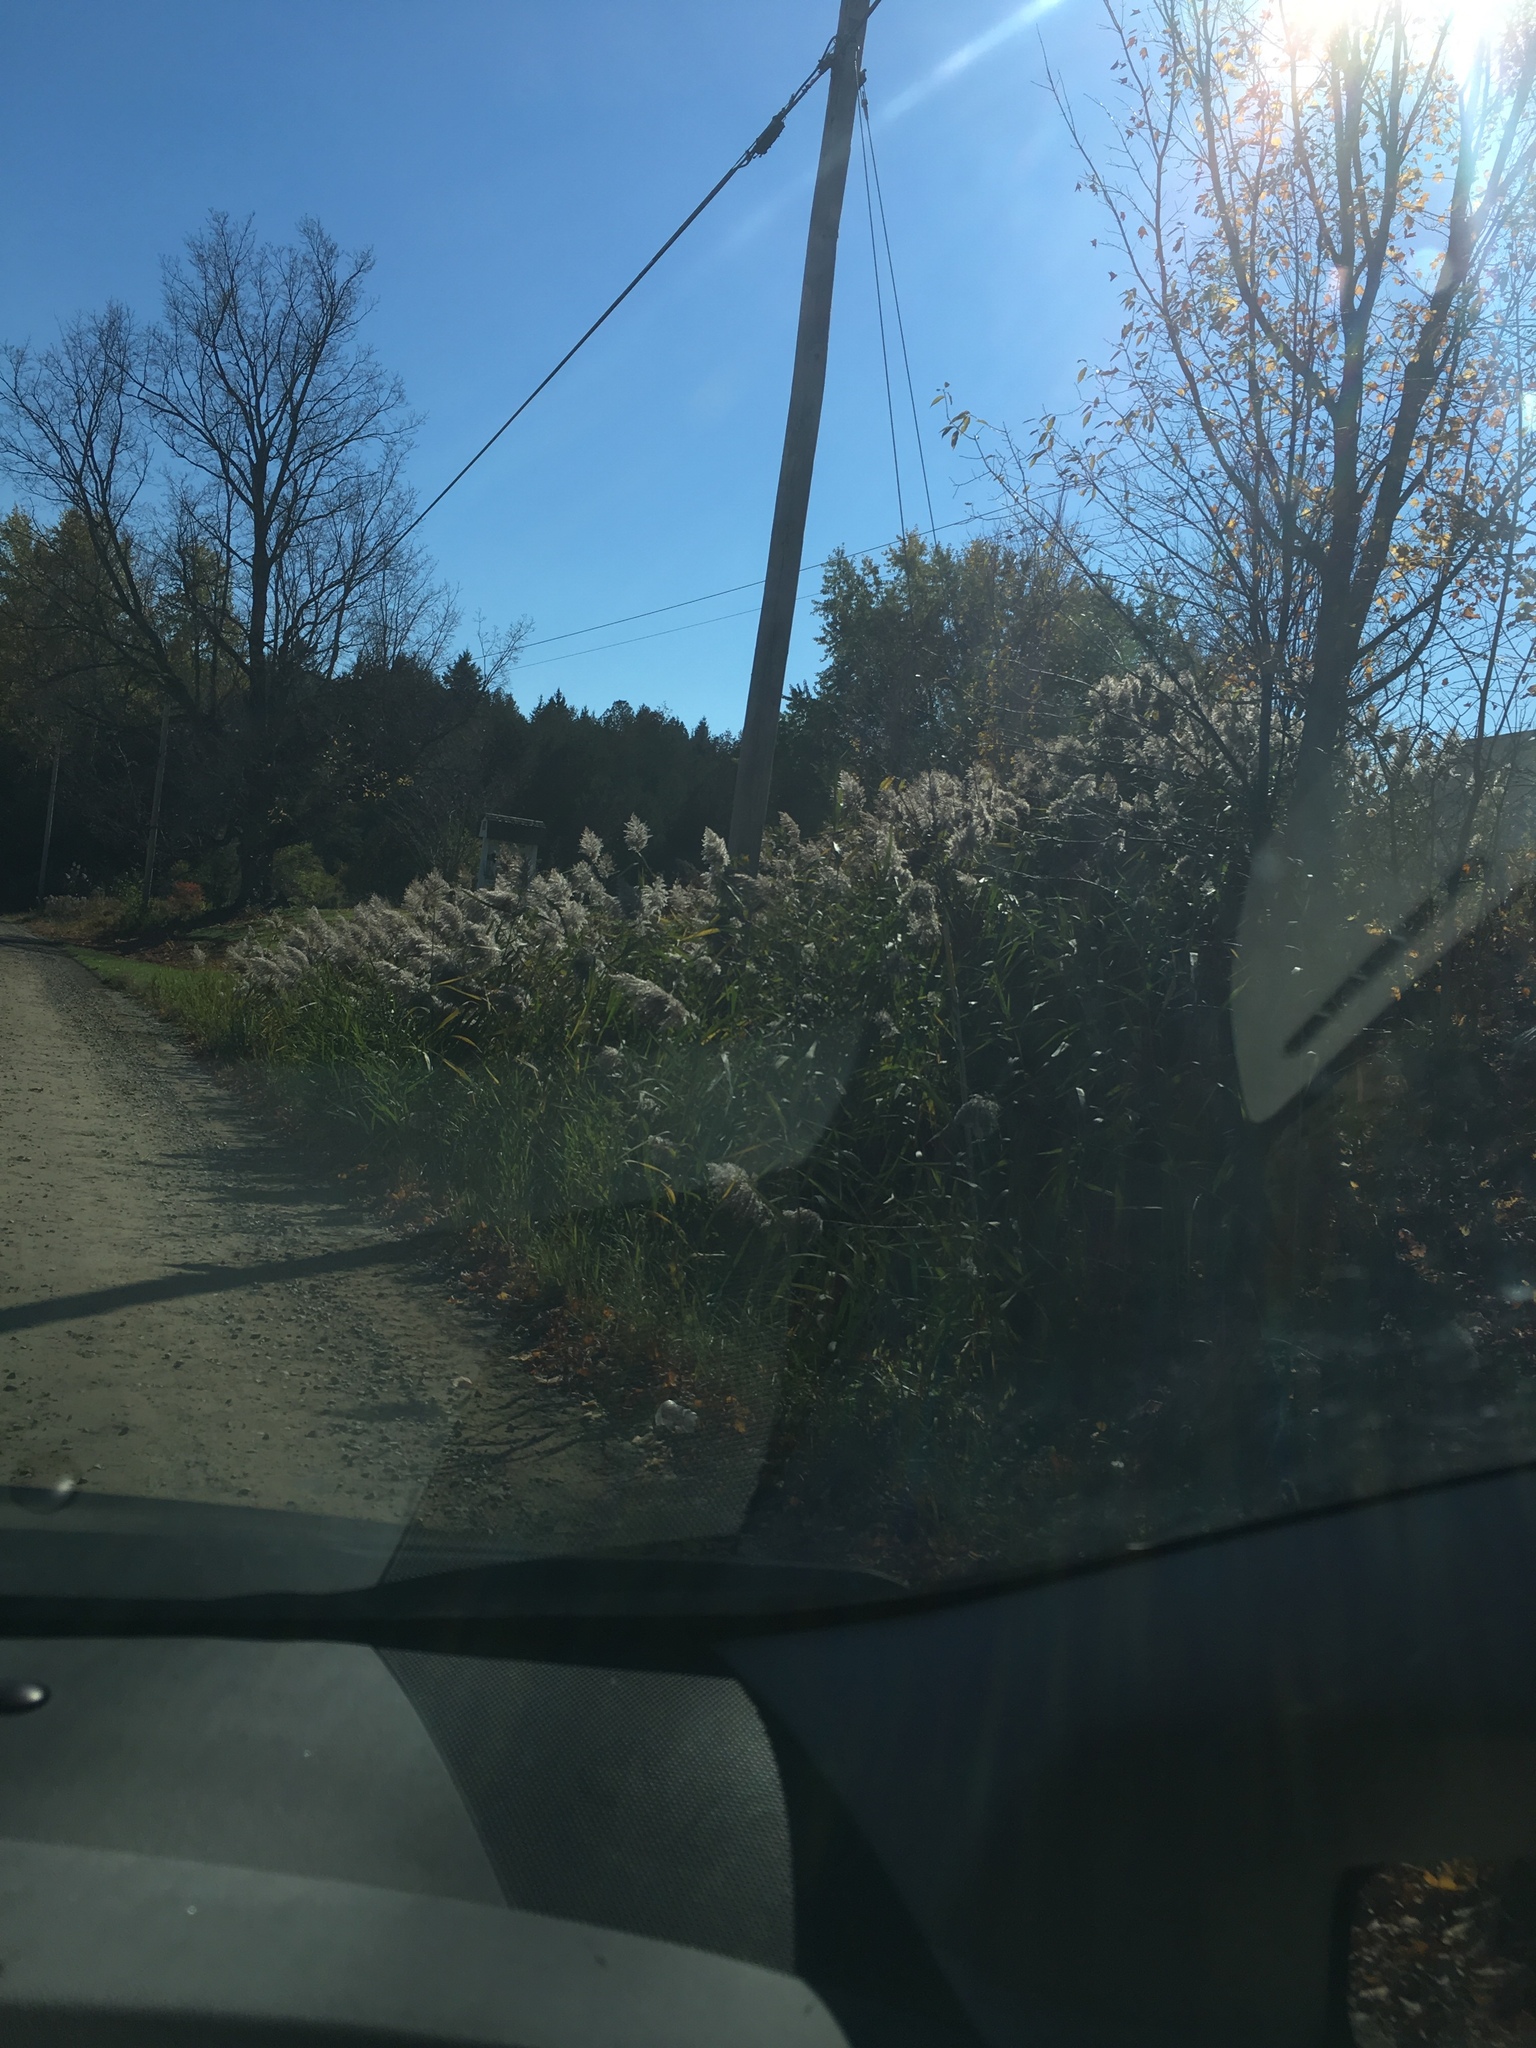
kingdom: Plantae
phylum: Tracheophyta
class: Liliopsida
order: Poales
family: Poaceae
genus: Phragmites
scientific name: Phragmites australis
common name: Common reed
